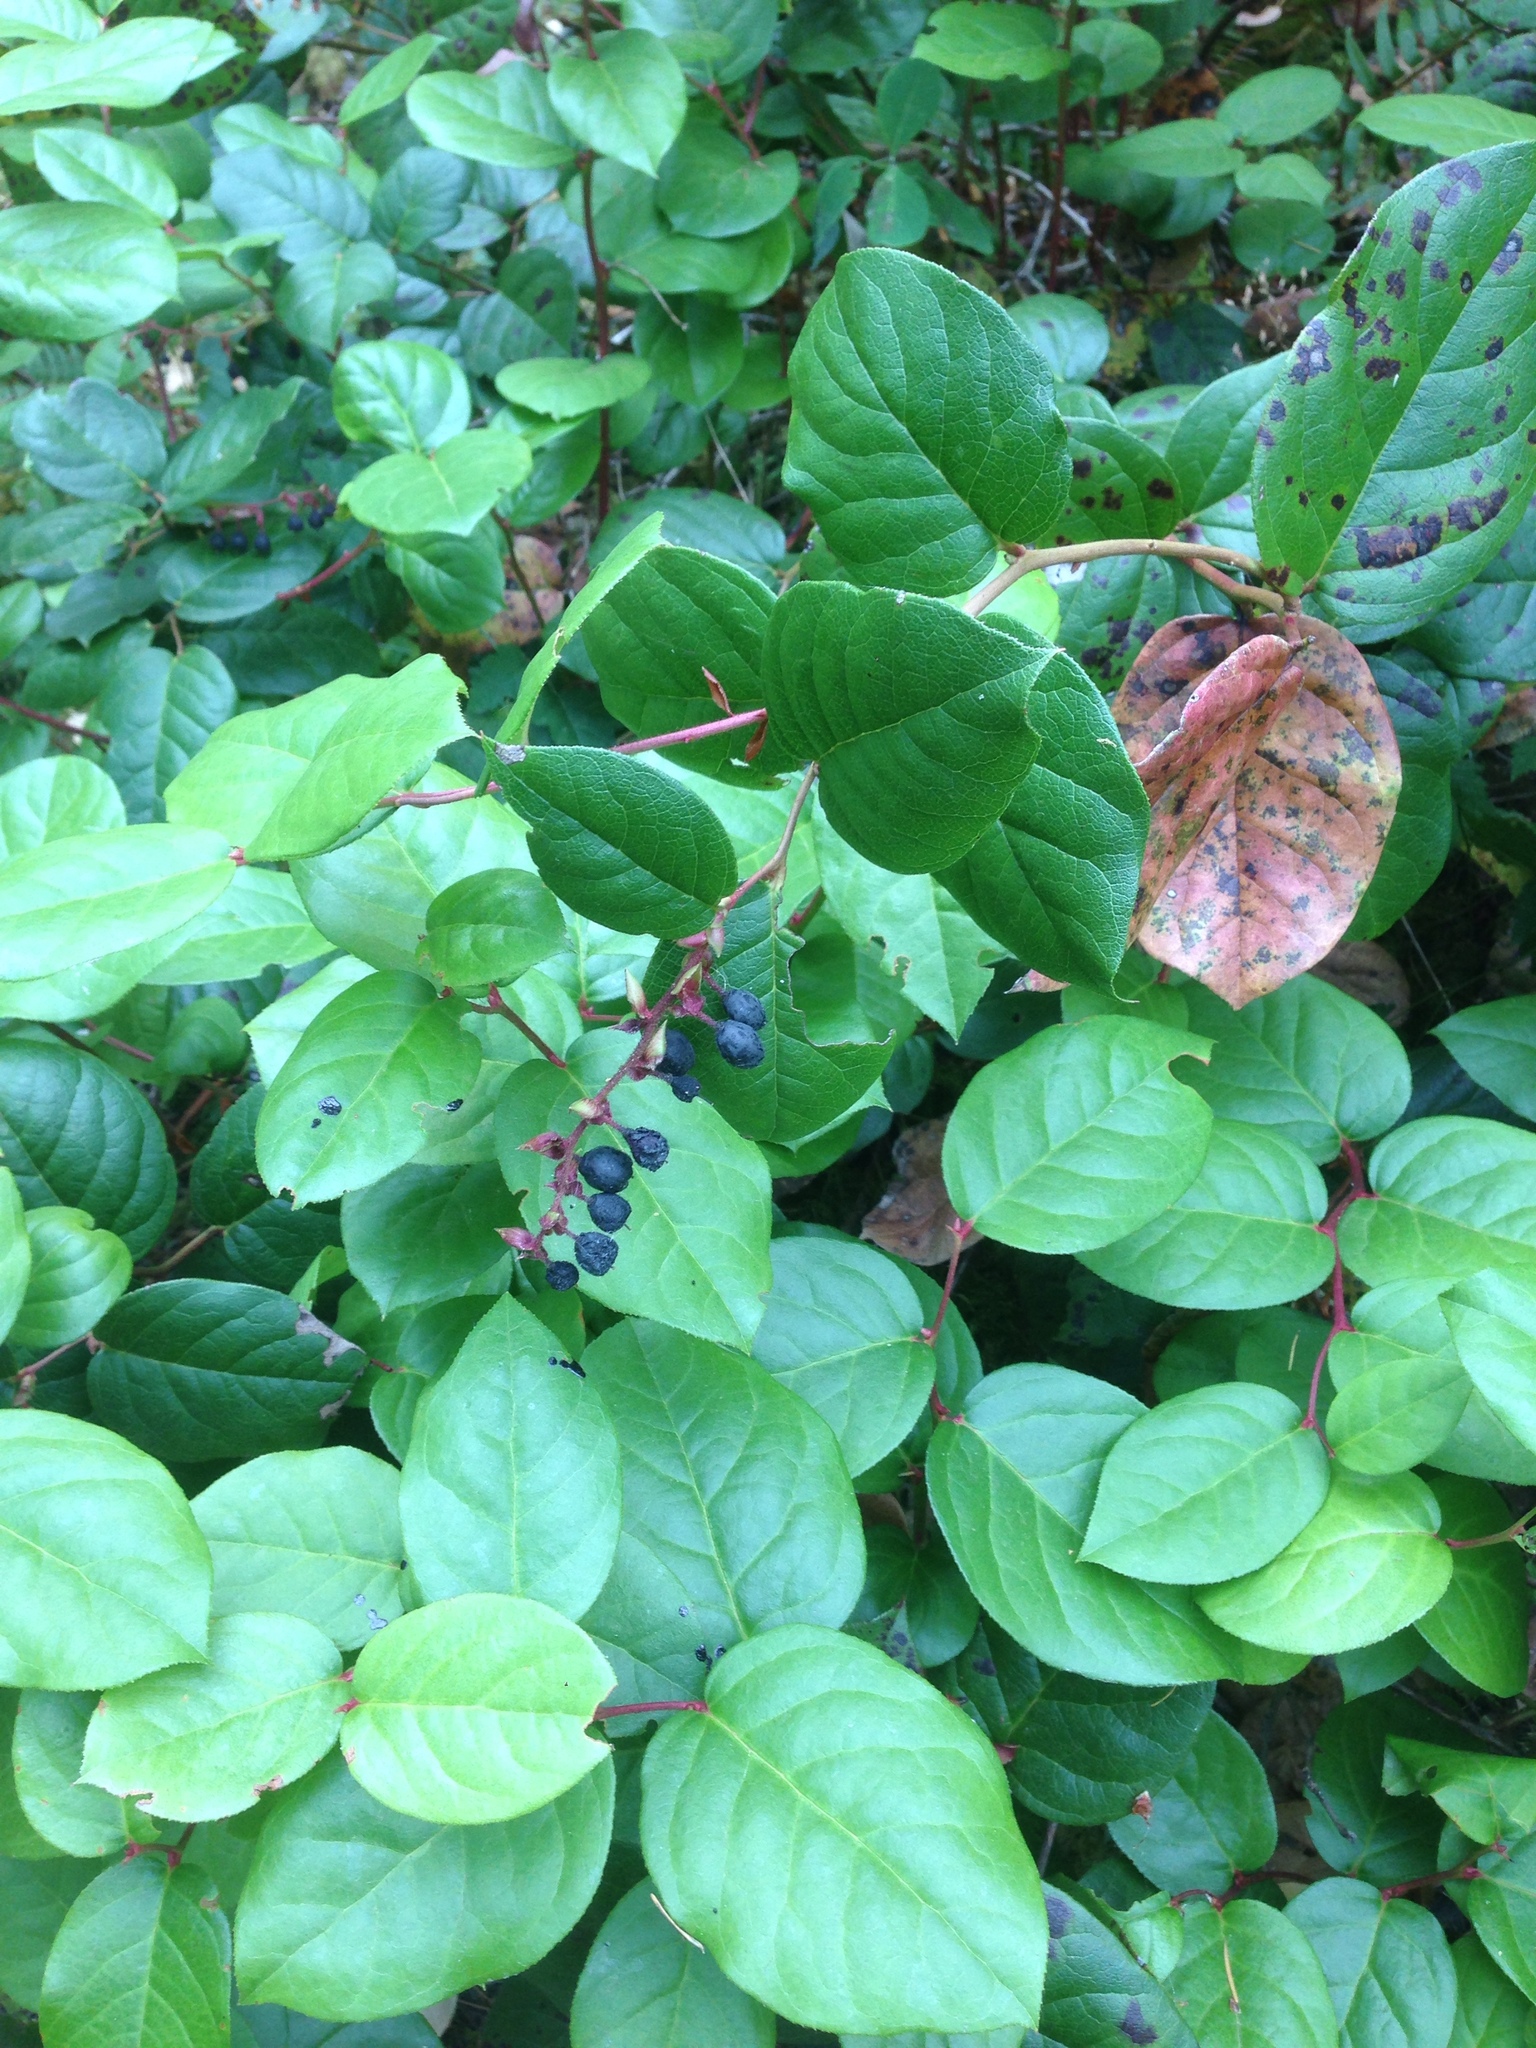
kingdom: Plantae
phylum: Tracheophyta
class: Magnoliopsida
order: Ericales
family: Ericaceae
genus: Gaultheria
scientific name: Gaultheria shallon
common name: Shallon
